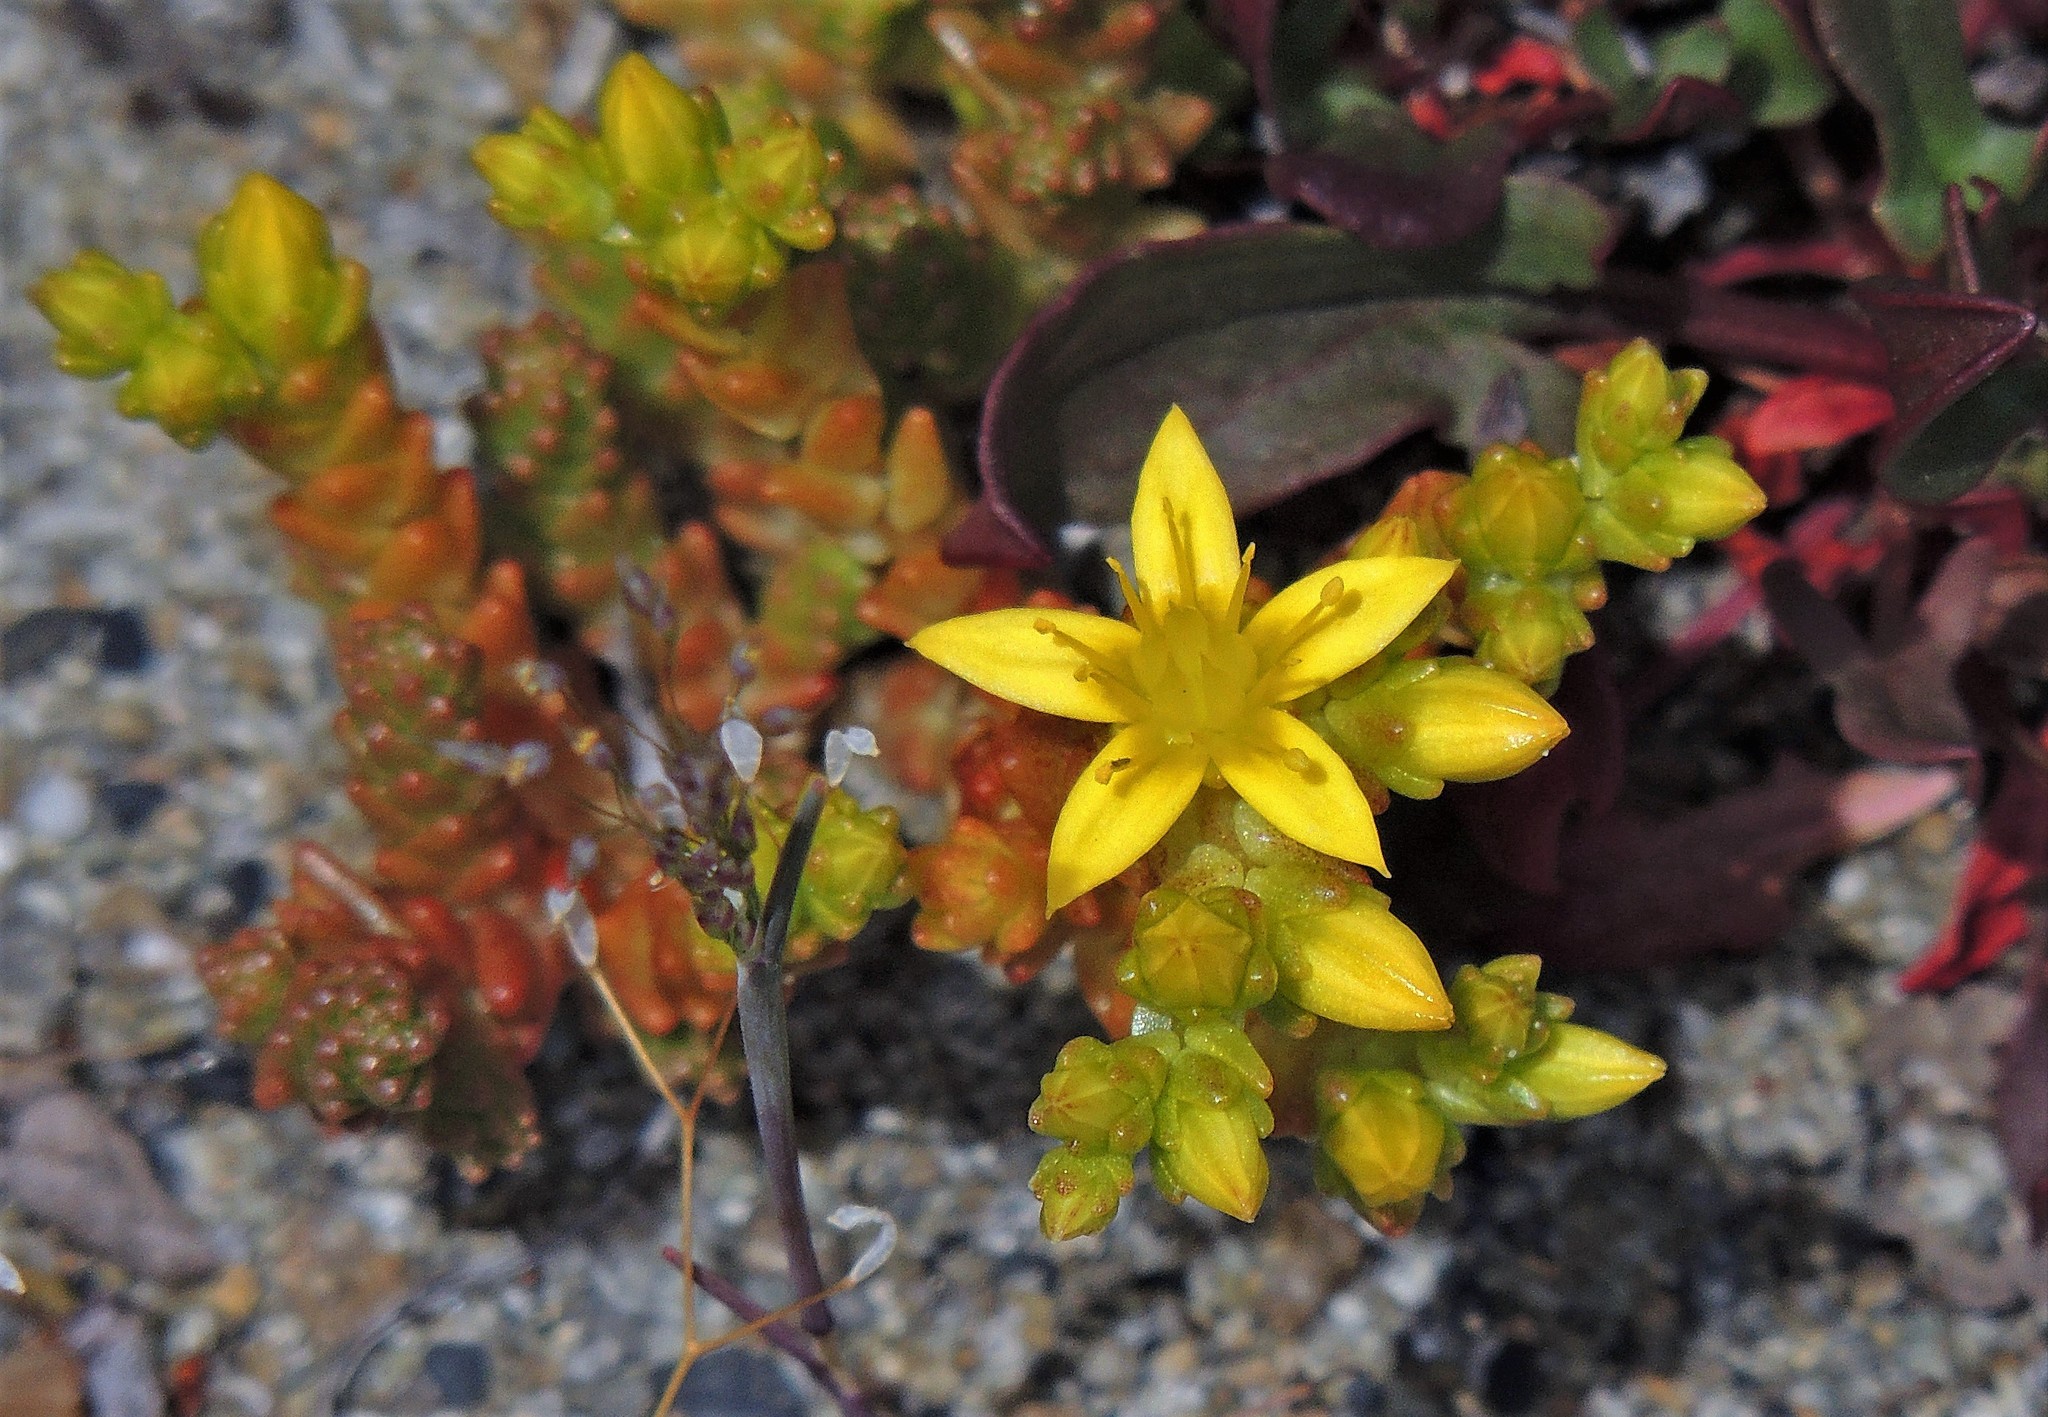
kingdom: Plantae
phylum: Tracheophyta
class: Magnoliopsida
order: Saxifragales
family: Crassulaceae
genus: Sedum
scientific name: Sedum acre
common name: Biting stonecrop
